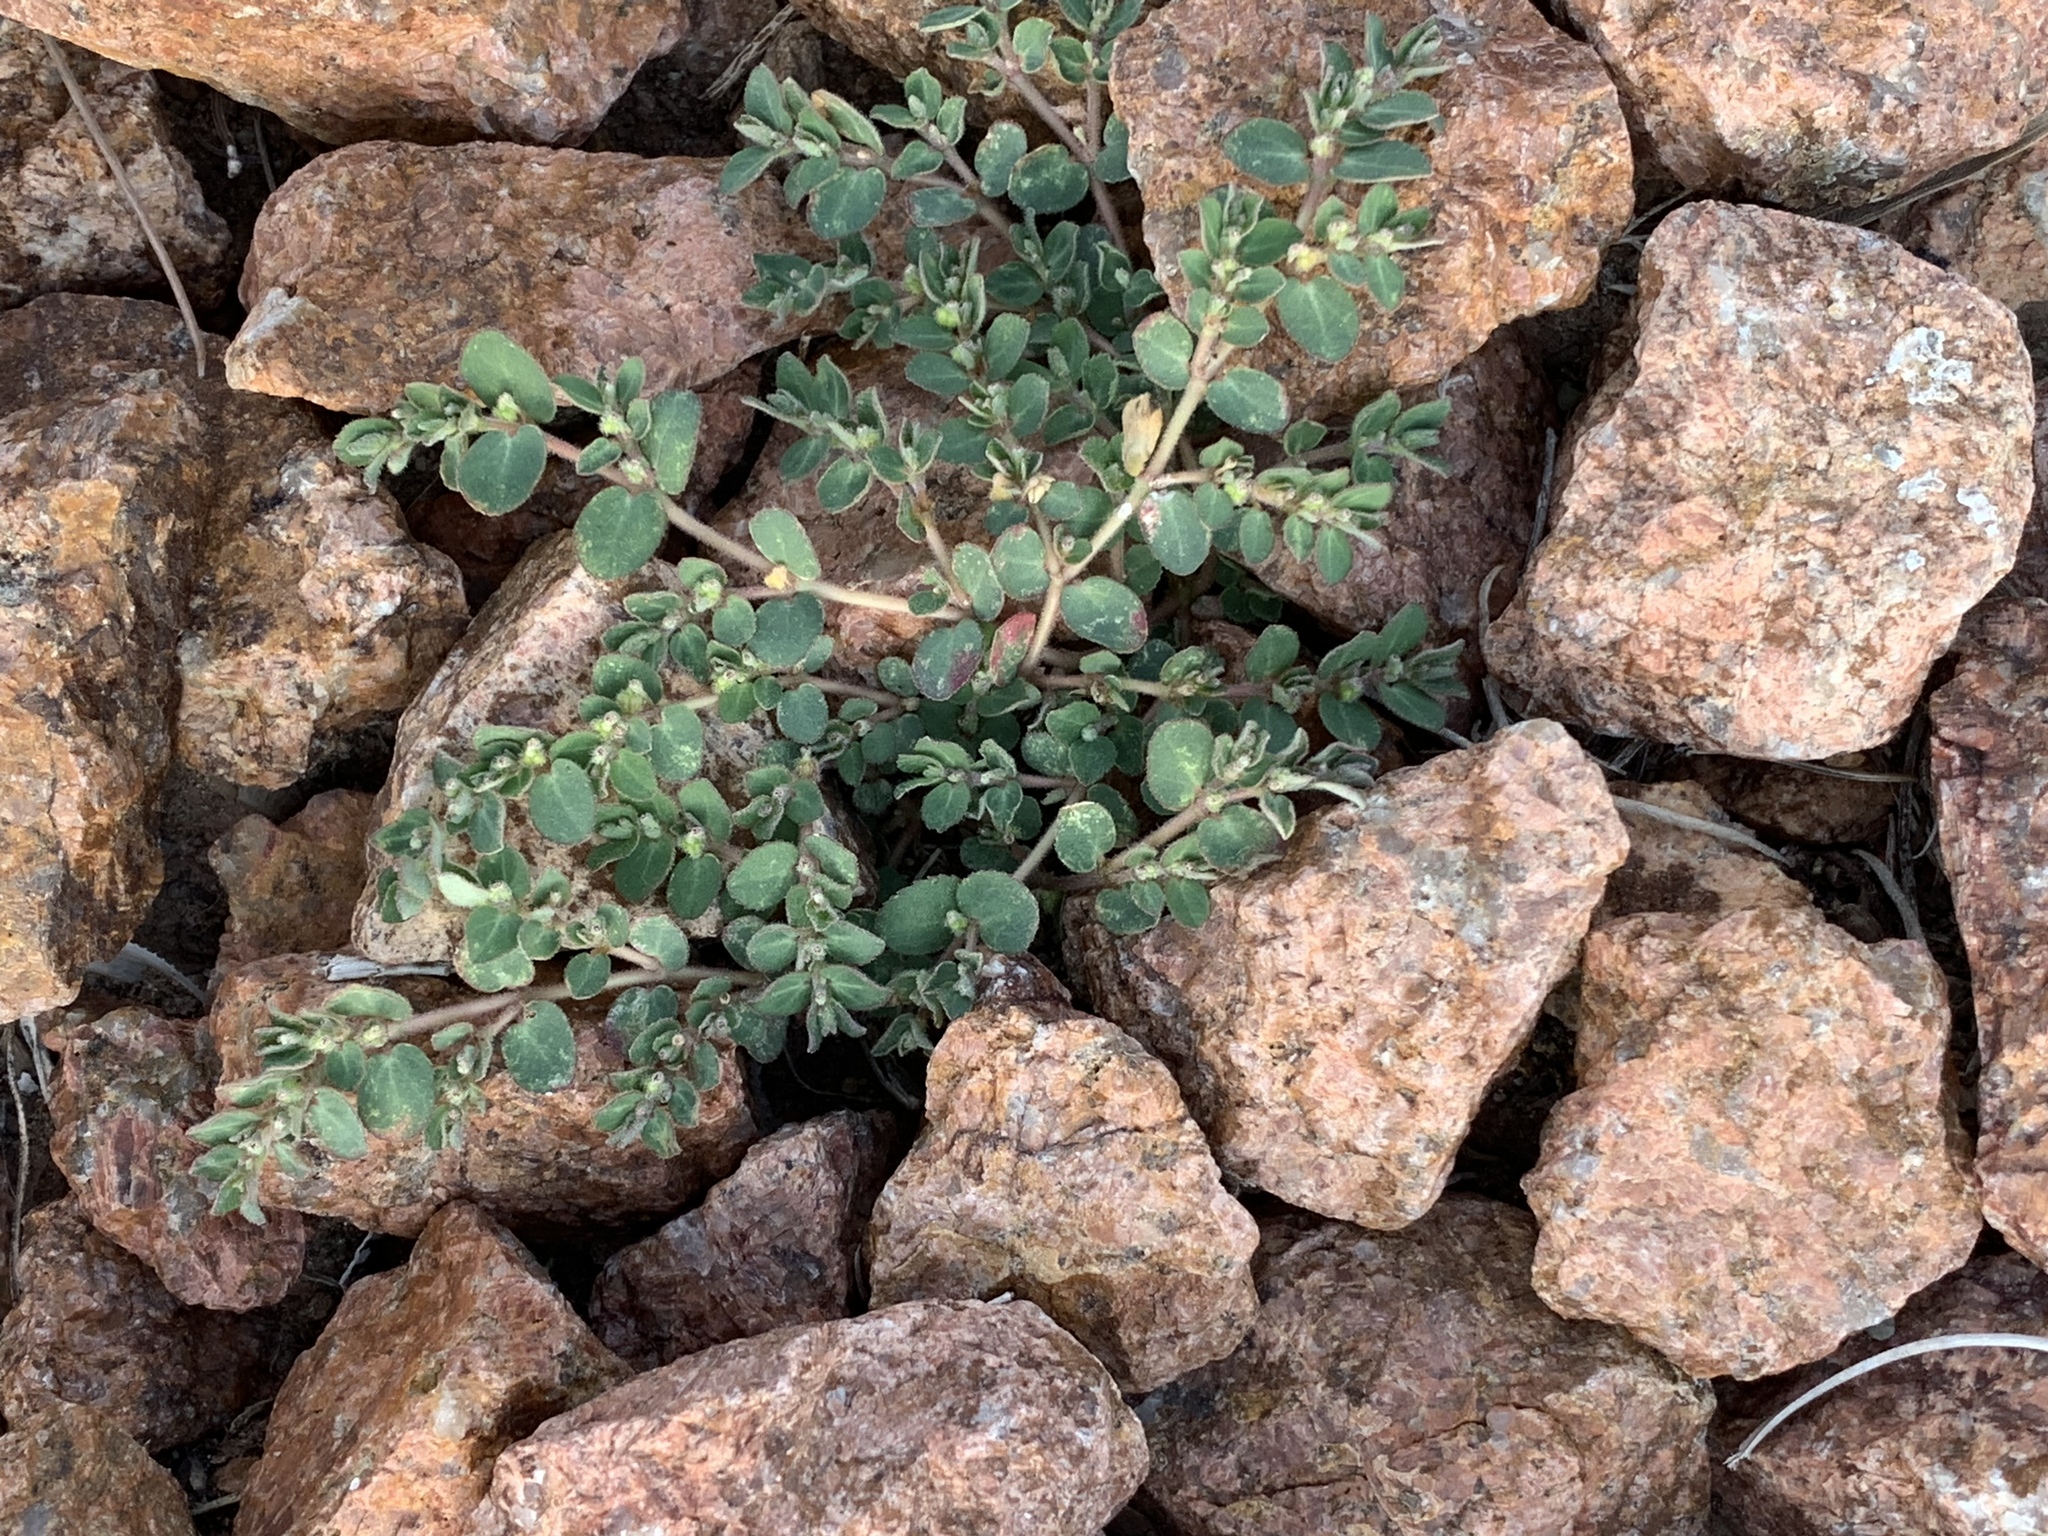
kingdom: Plantae
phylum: Tracheophyta
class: Magnoliopsida
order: Malpighiales
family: Euphorbiaceae
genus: Euphorbia
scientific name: Euphorbia prostrata
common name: Prostrate sandmat
